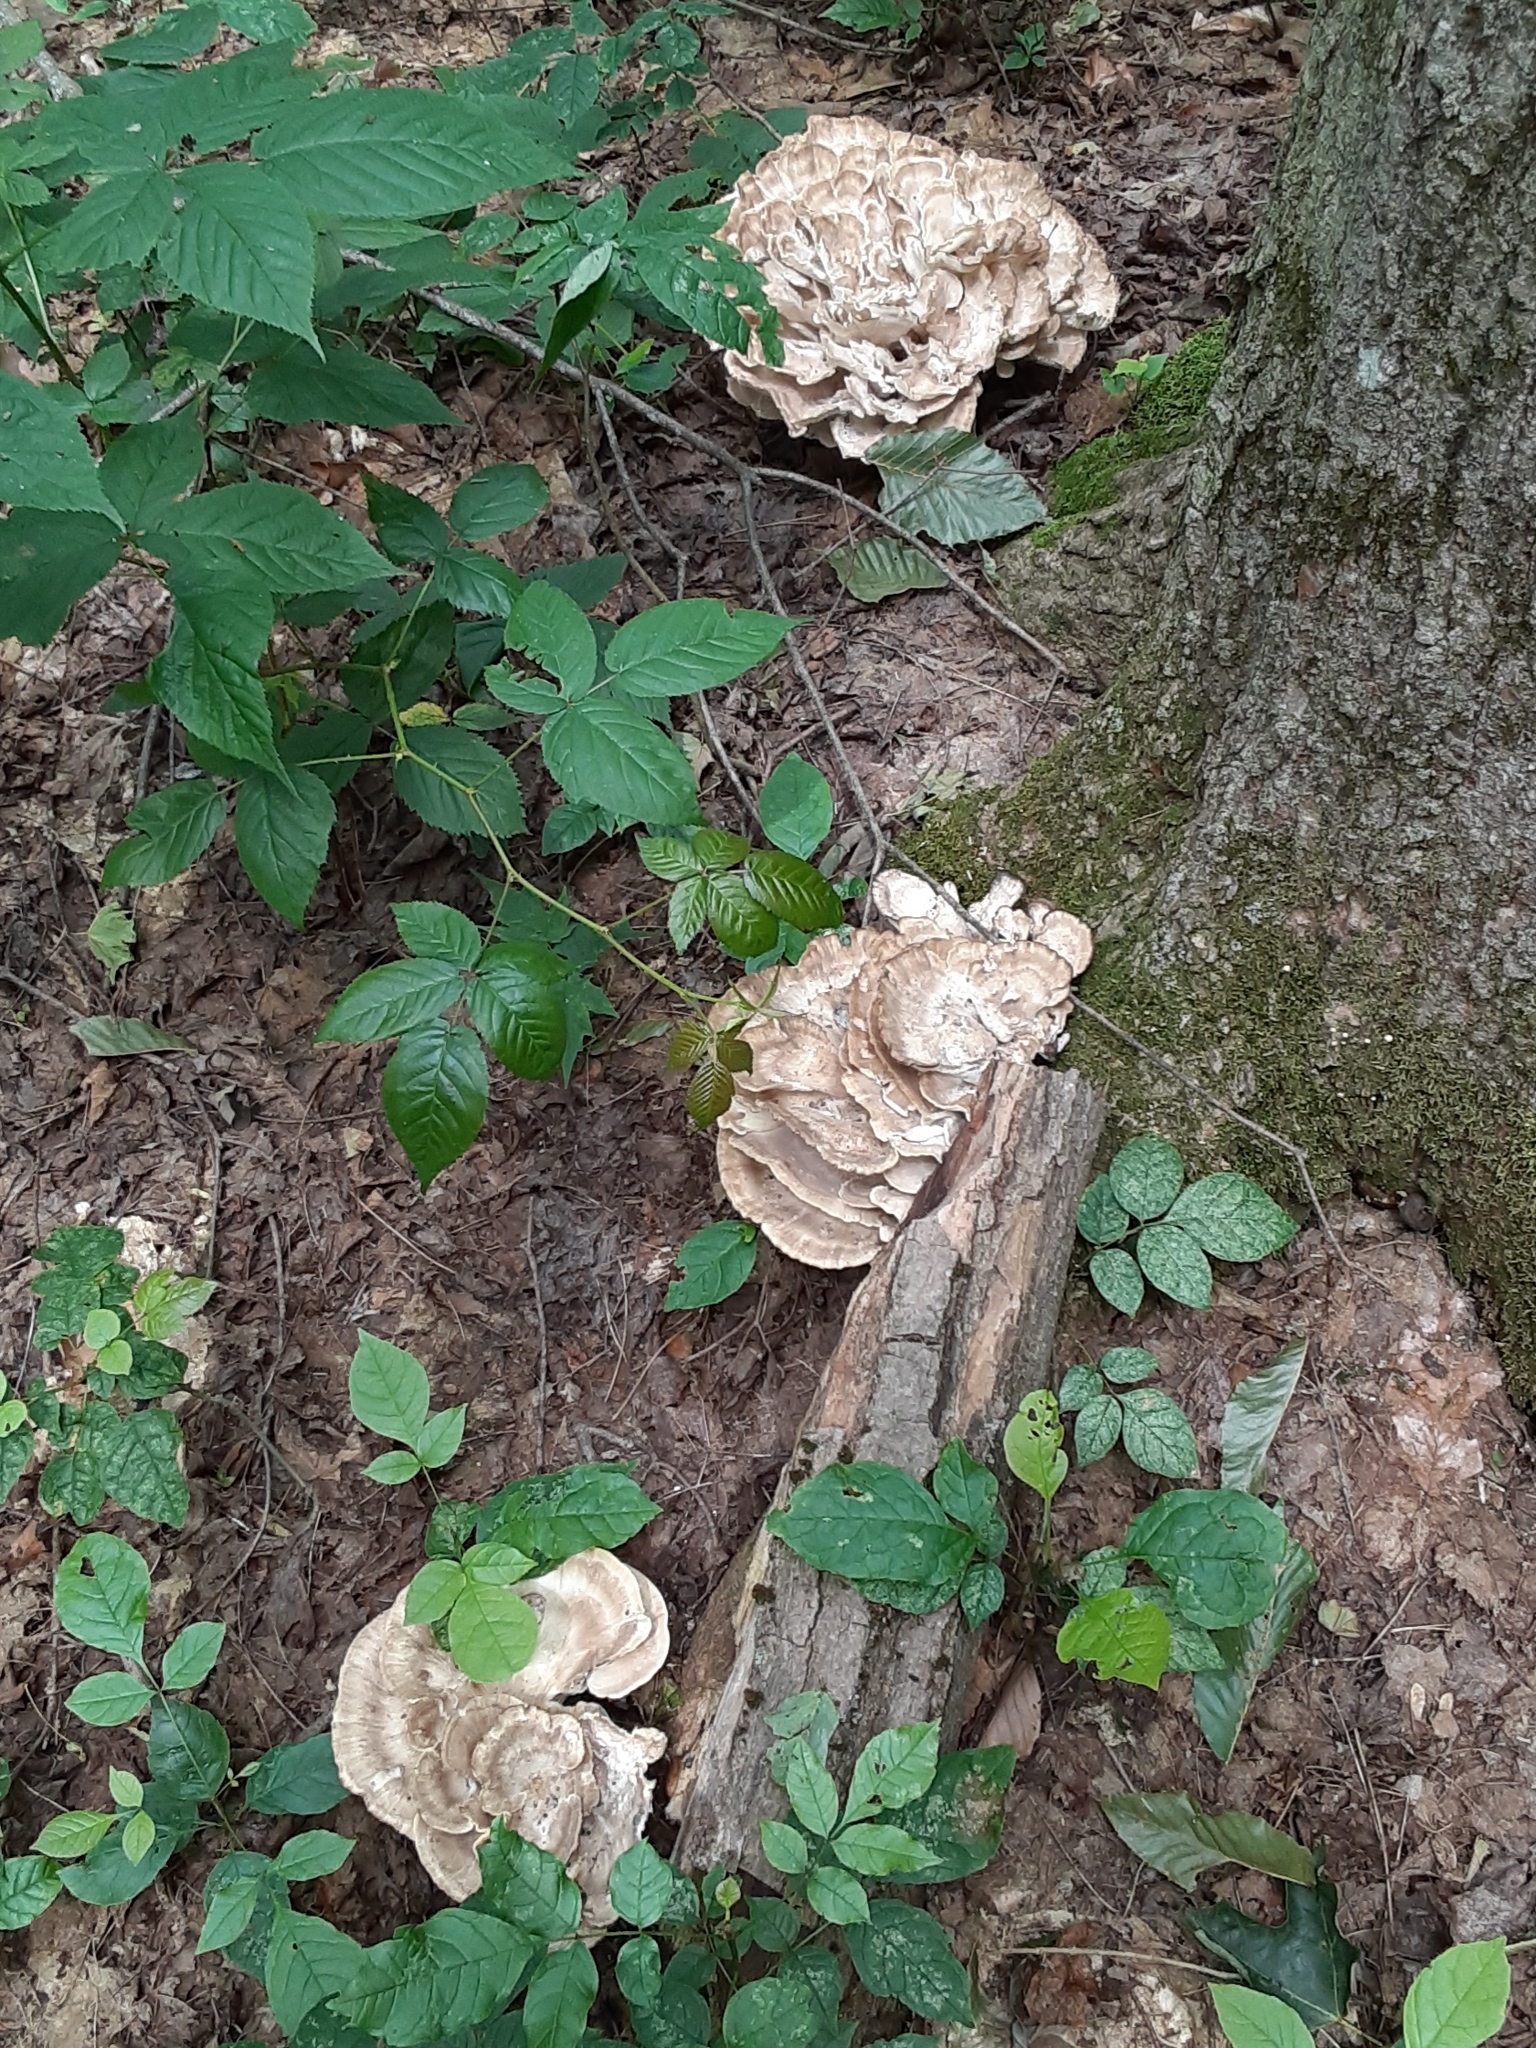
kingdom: Fungi
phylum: Basidiomycota
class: Agaricomycetes
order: Polyporales
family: Meripilaceae
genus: Meripilus
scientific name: Meripilus sumstinei
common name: Black-staining polypore
